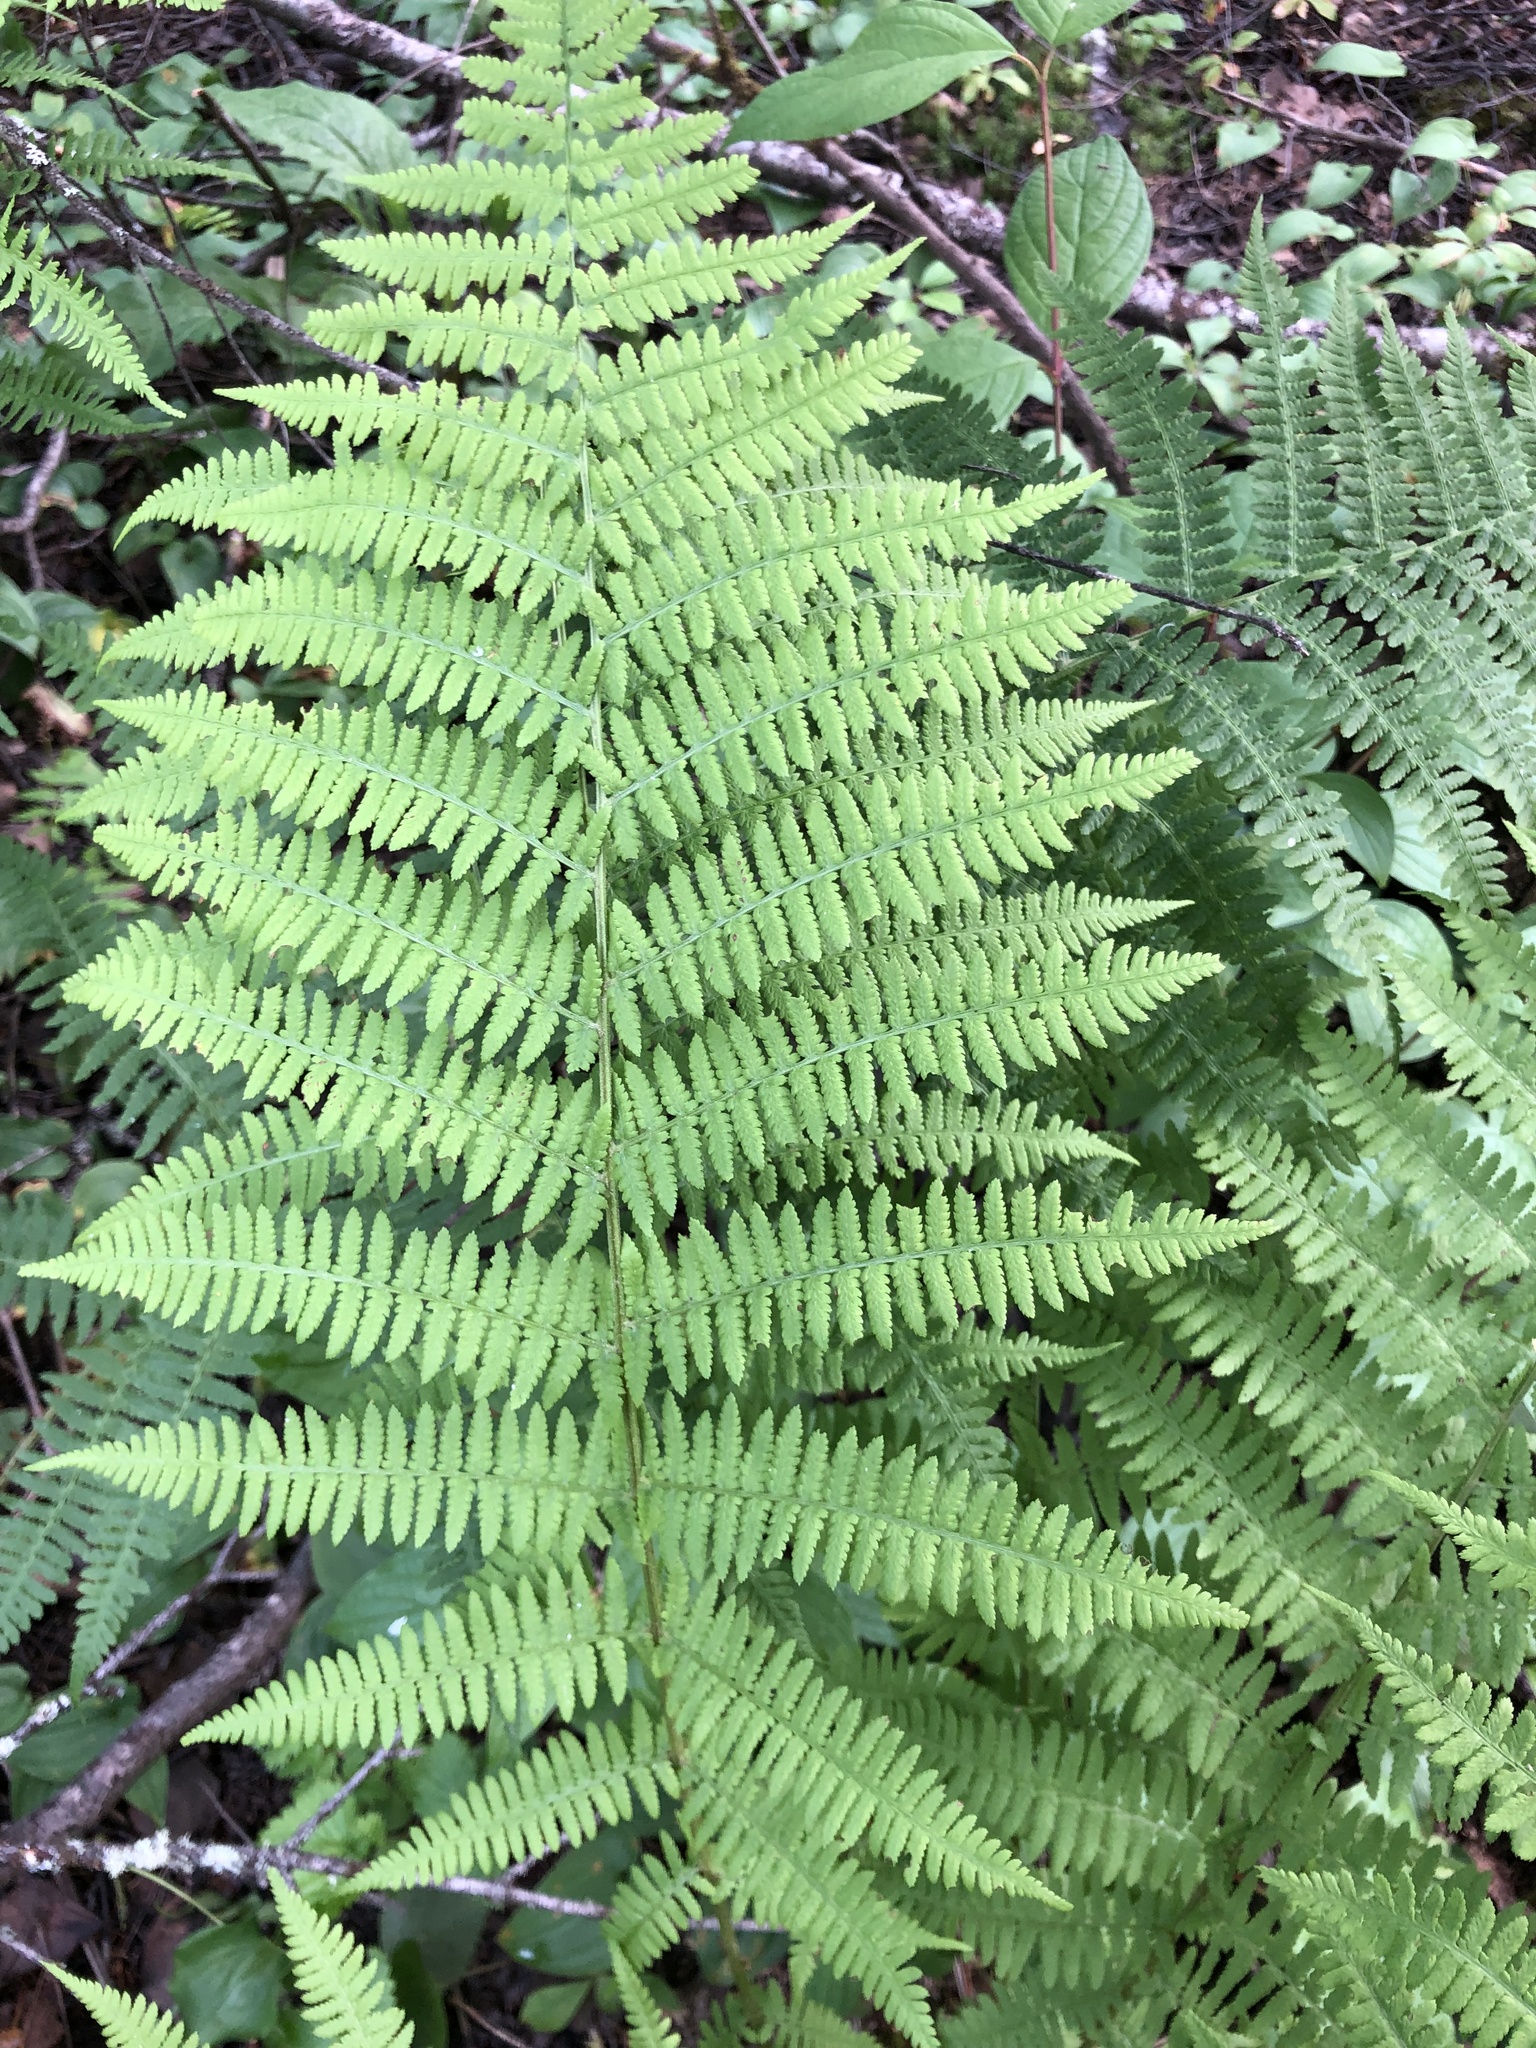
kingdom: Plantae
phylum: Tracheophyta
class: Polypodiopsida
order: Polypodiales
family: Athyriaceae
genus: Athyrium
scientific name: Athyrium filix-femina
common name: Lady fern
